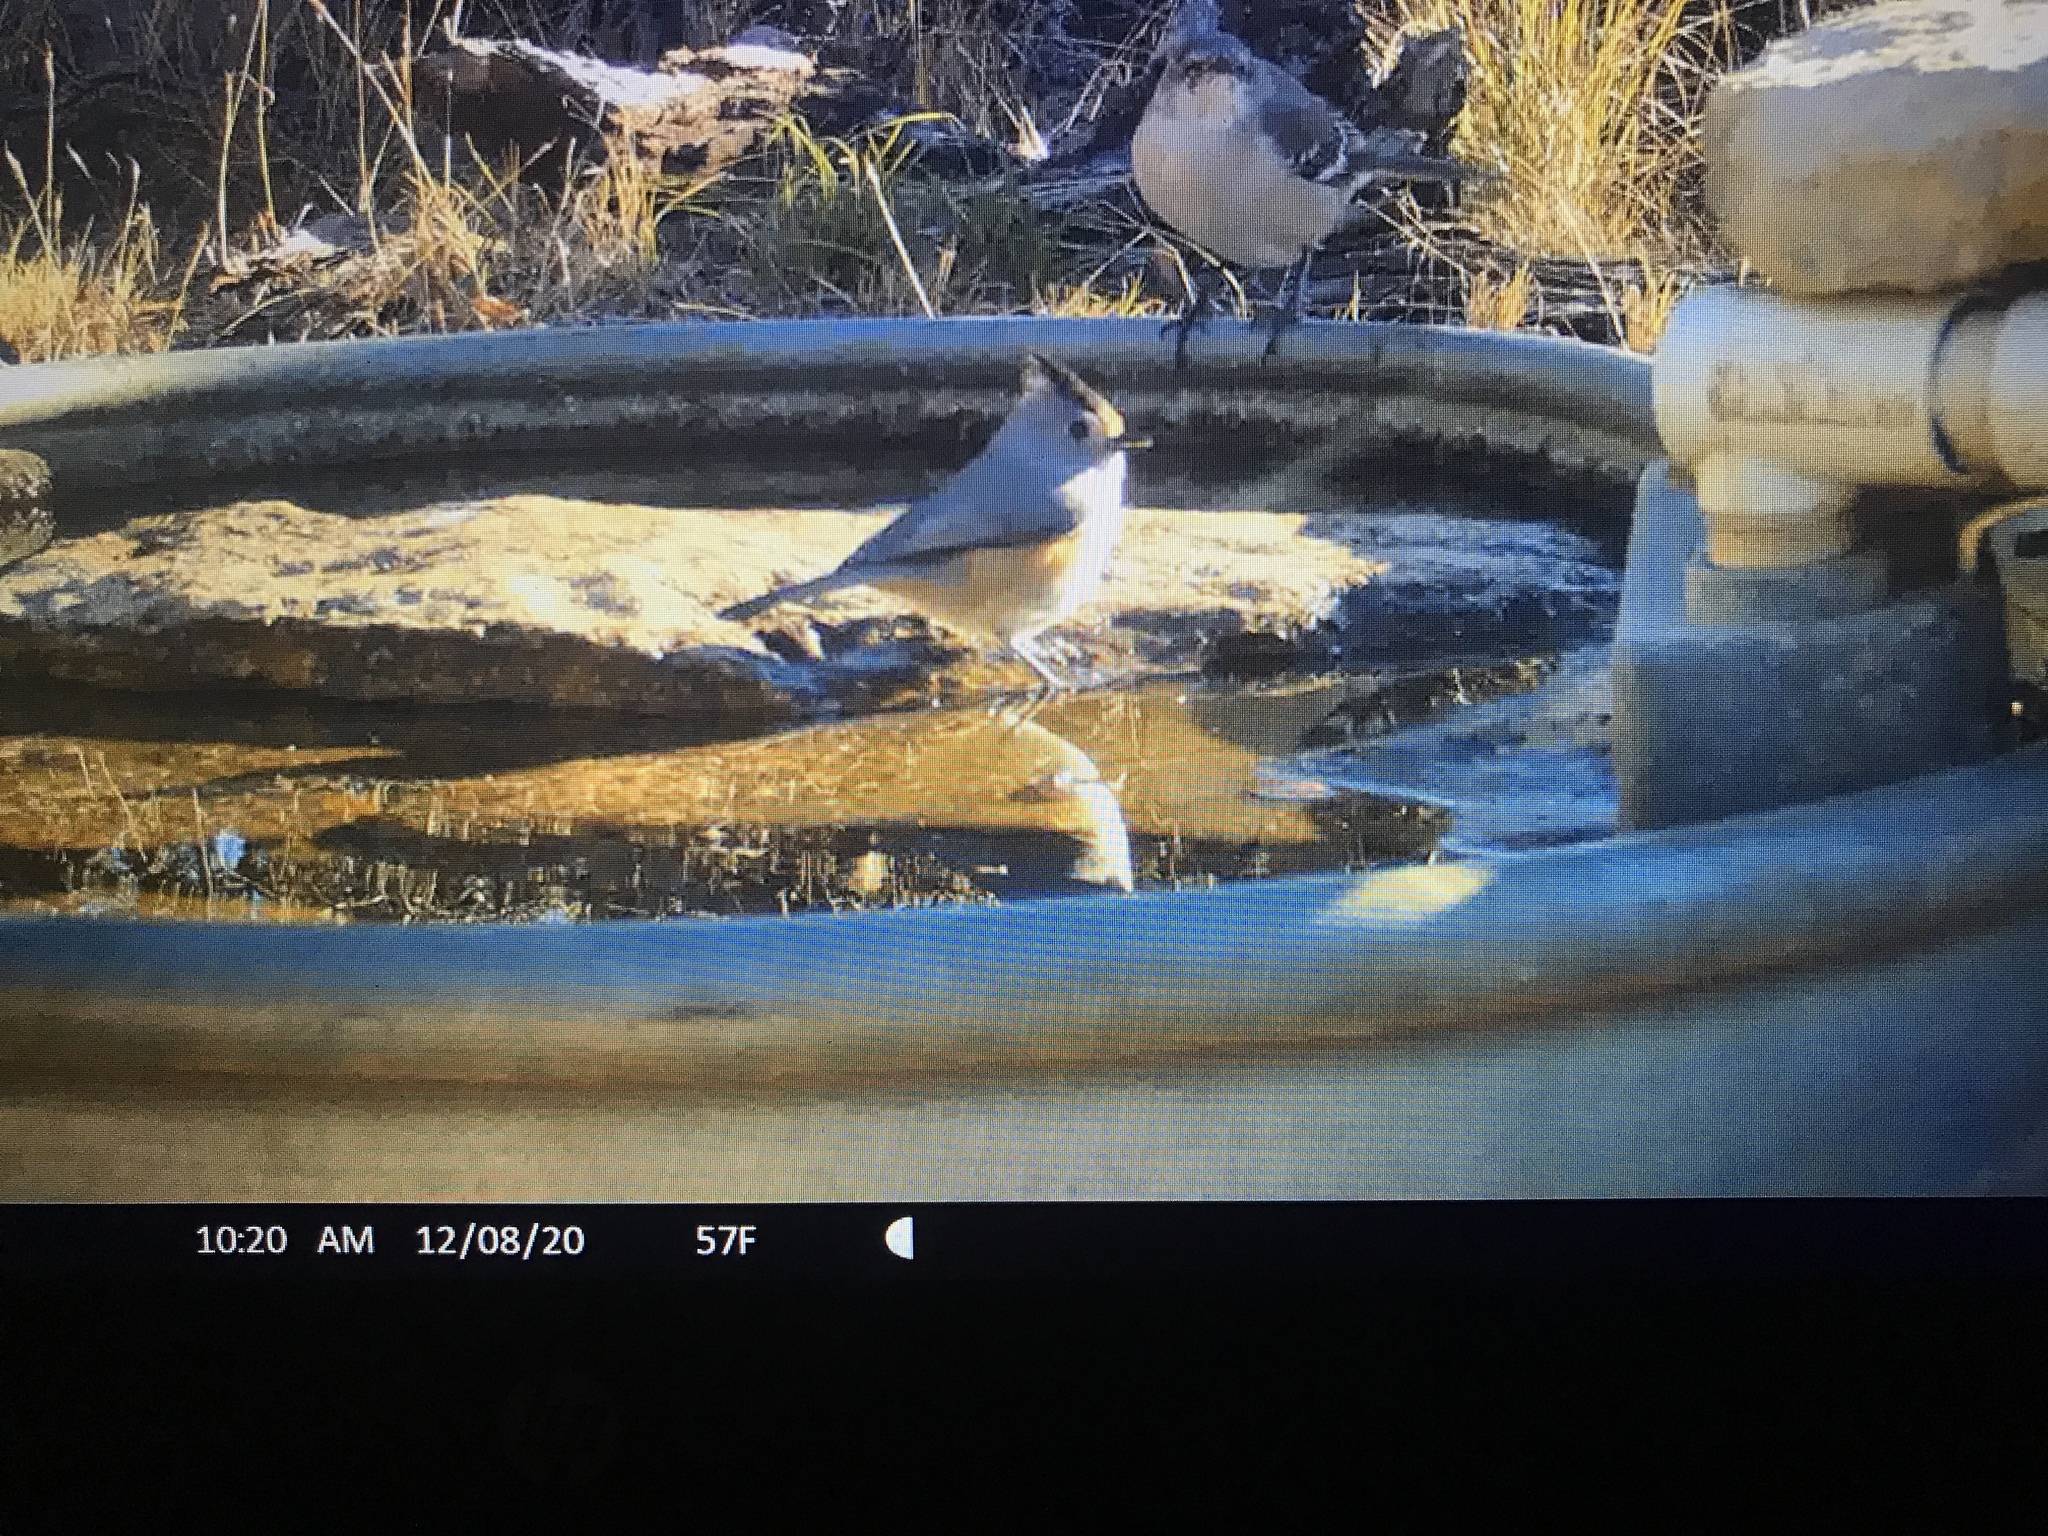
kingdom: Animalia
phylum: Chordata
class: Aves
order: Passeriformes
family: Paridae
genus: Baeolophus
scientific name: Baeolophus atricristatus
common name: Black-crested titmouse
